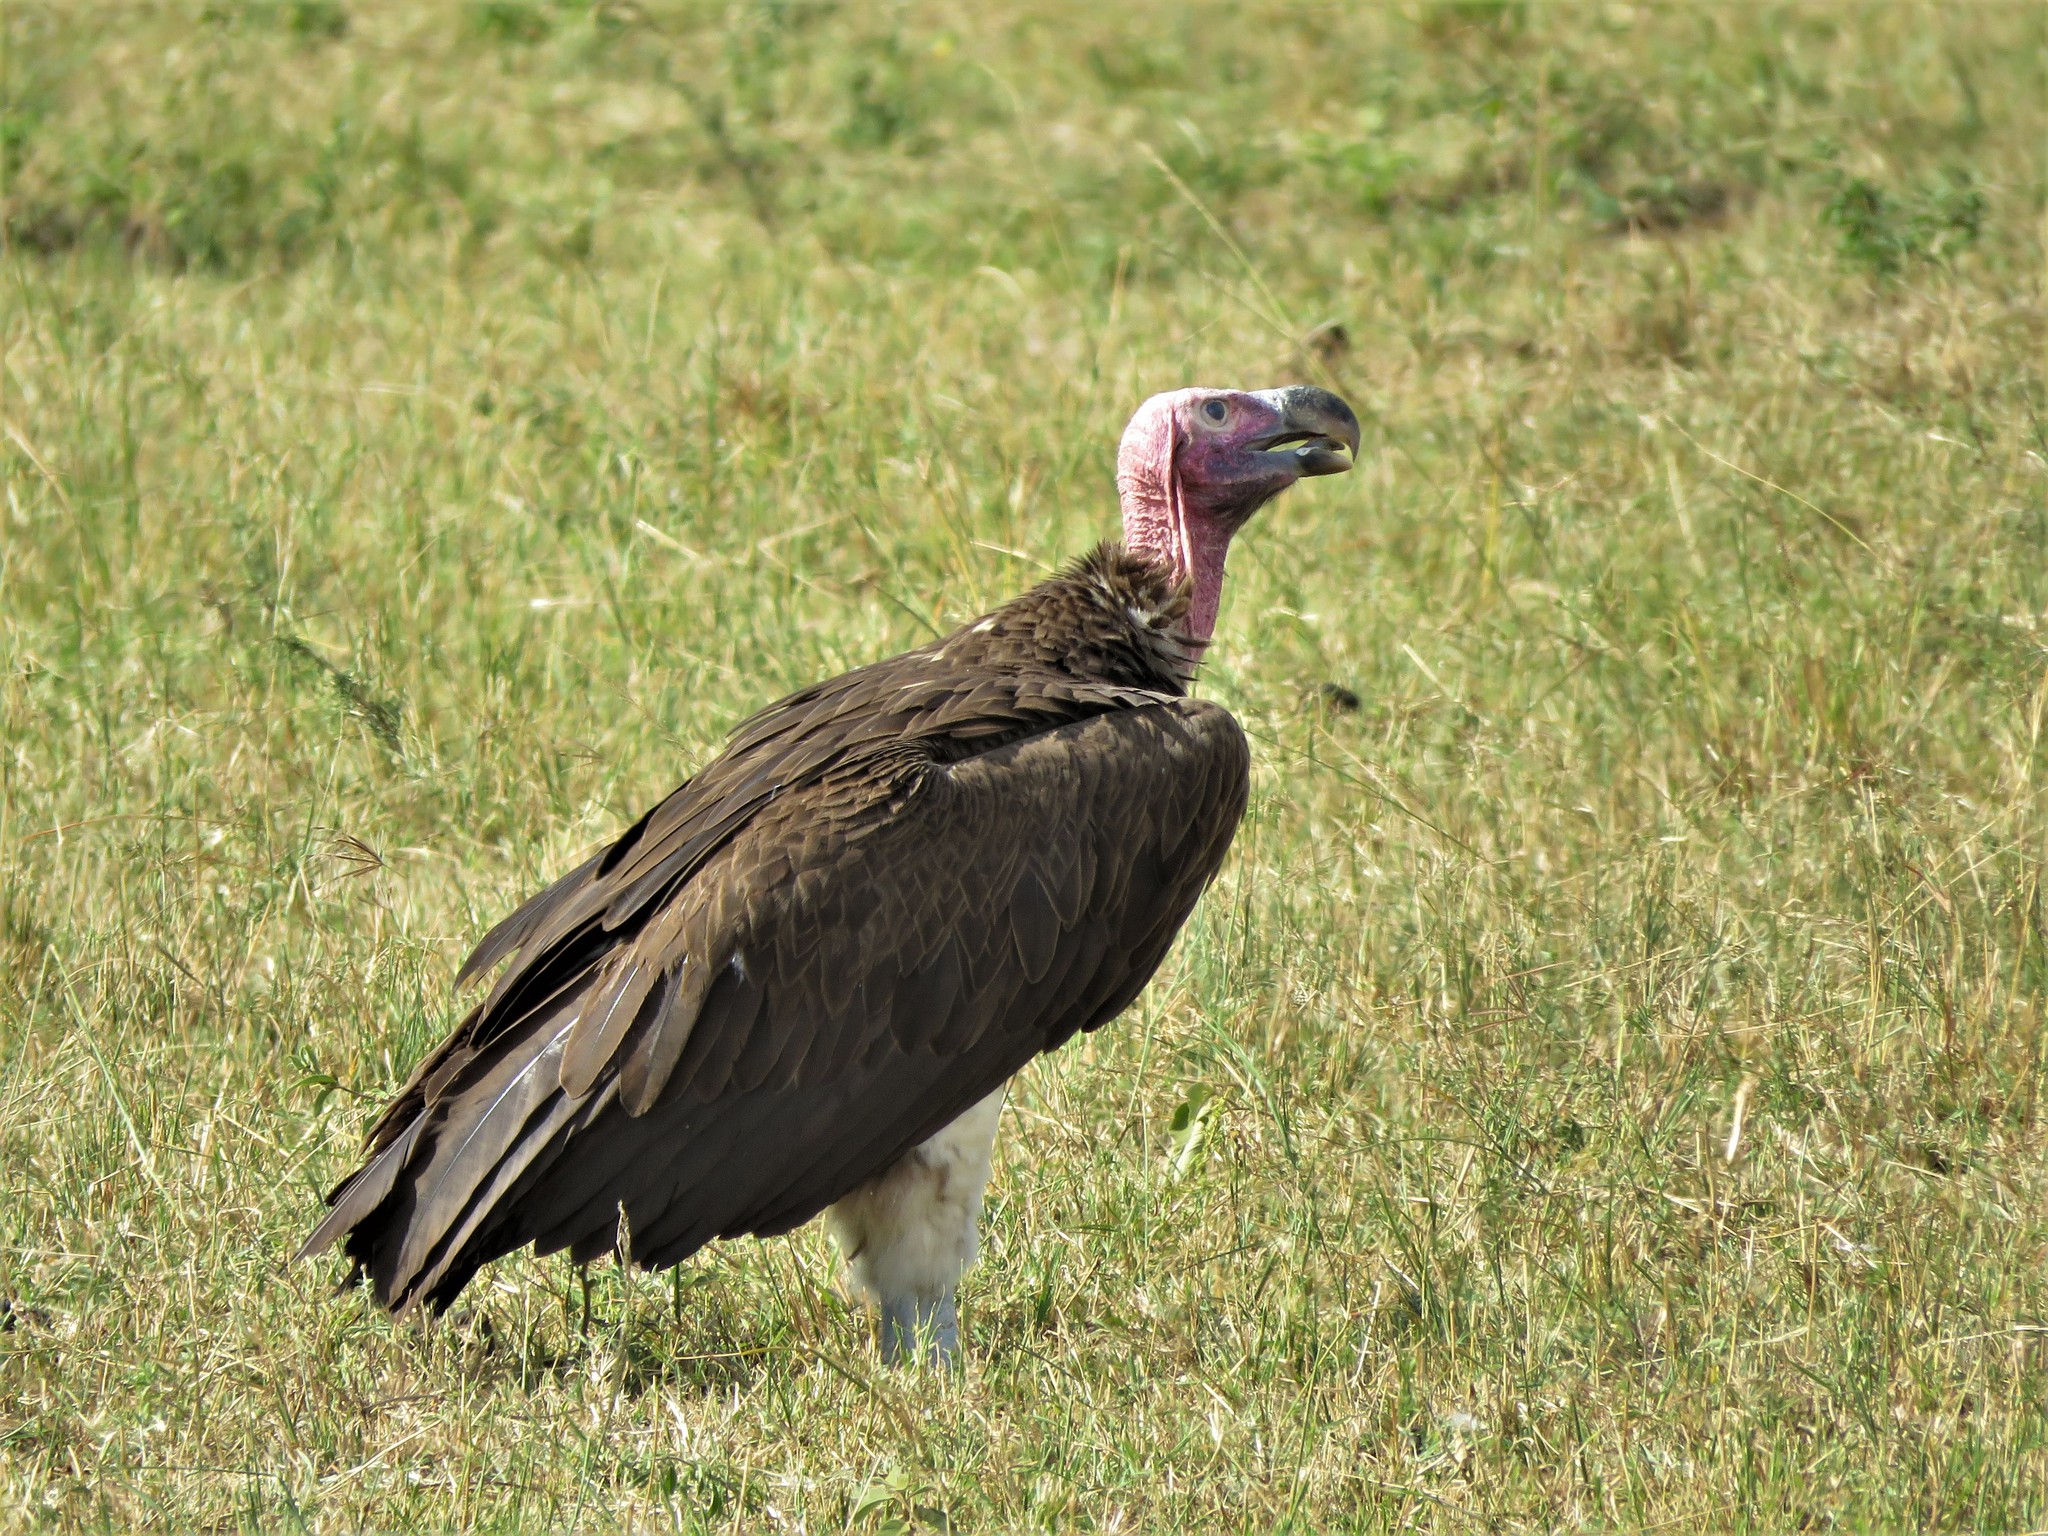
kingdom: Animalia
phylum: Chordata
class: Aves
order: Accipitriformes
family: Accipitridae
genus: Torgos
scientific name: Torgos tracheliotos
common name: Lappet-faced vulture
